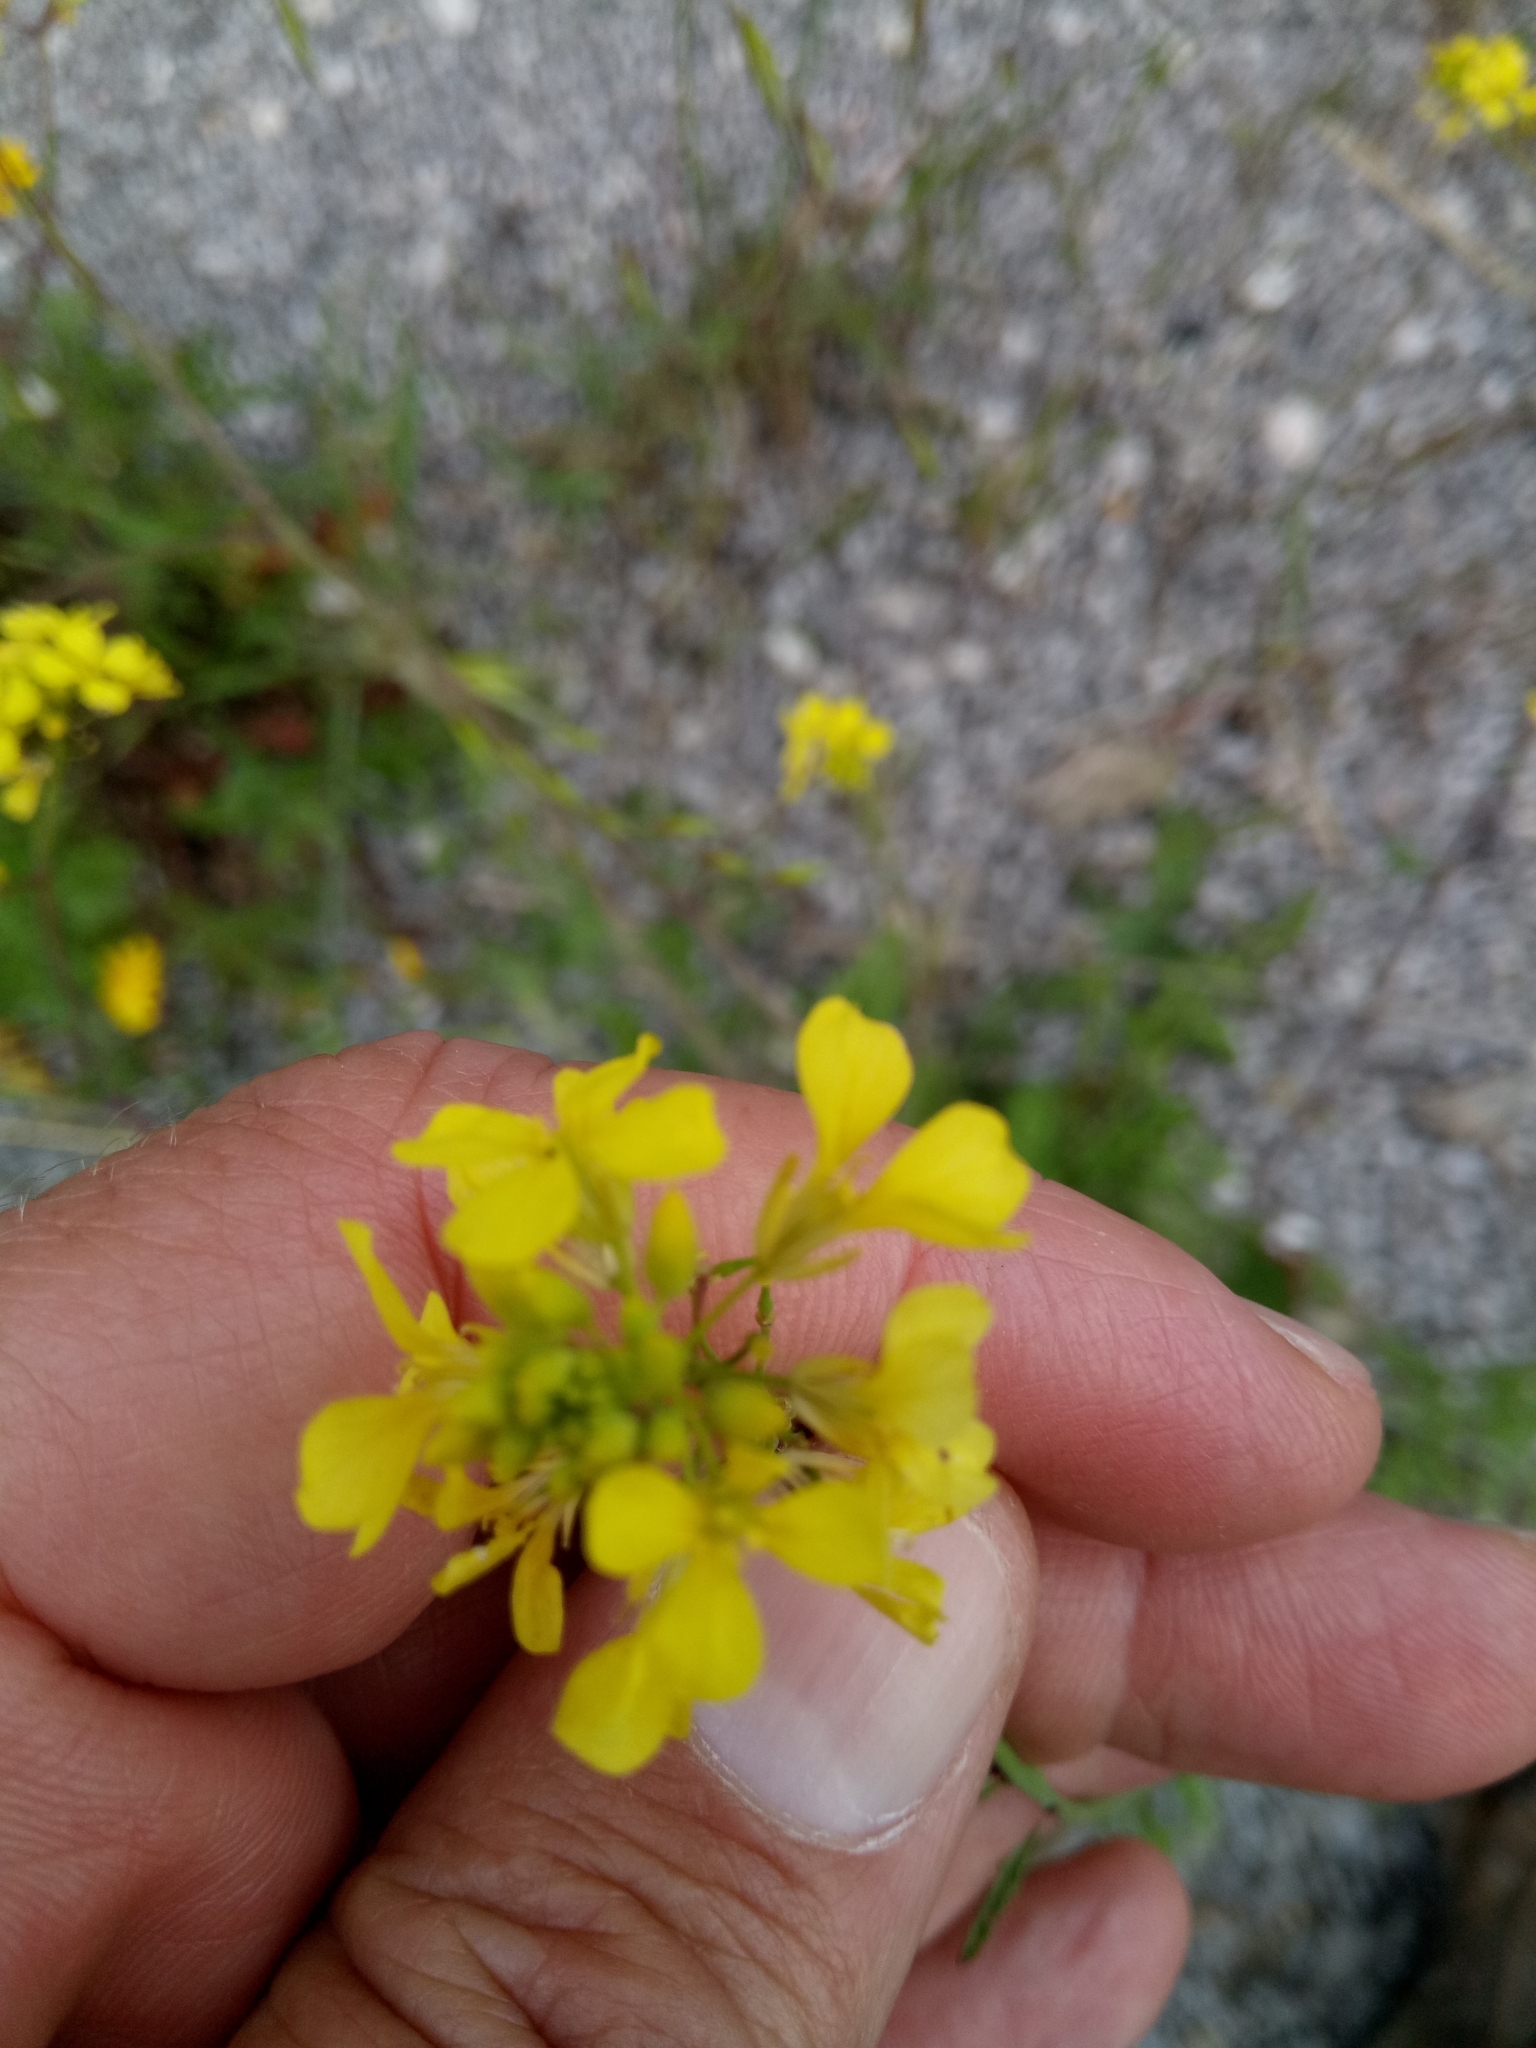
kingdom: Plantae
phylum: Tracheophyta
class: Magnoliopsida
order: Brassicales
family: Brassicaceae
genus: Sinapis
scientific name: Sinapis arvensis
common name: Charlock
